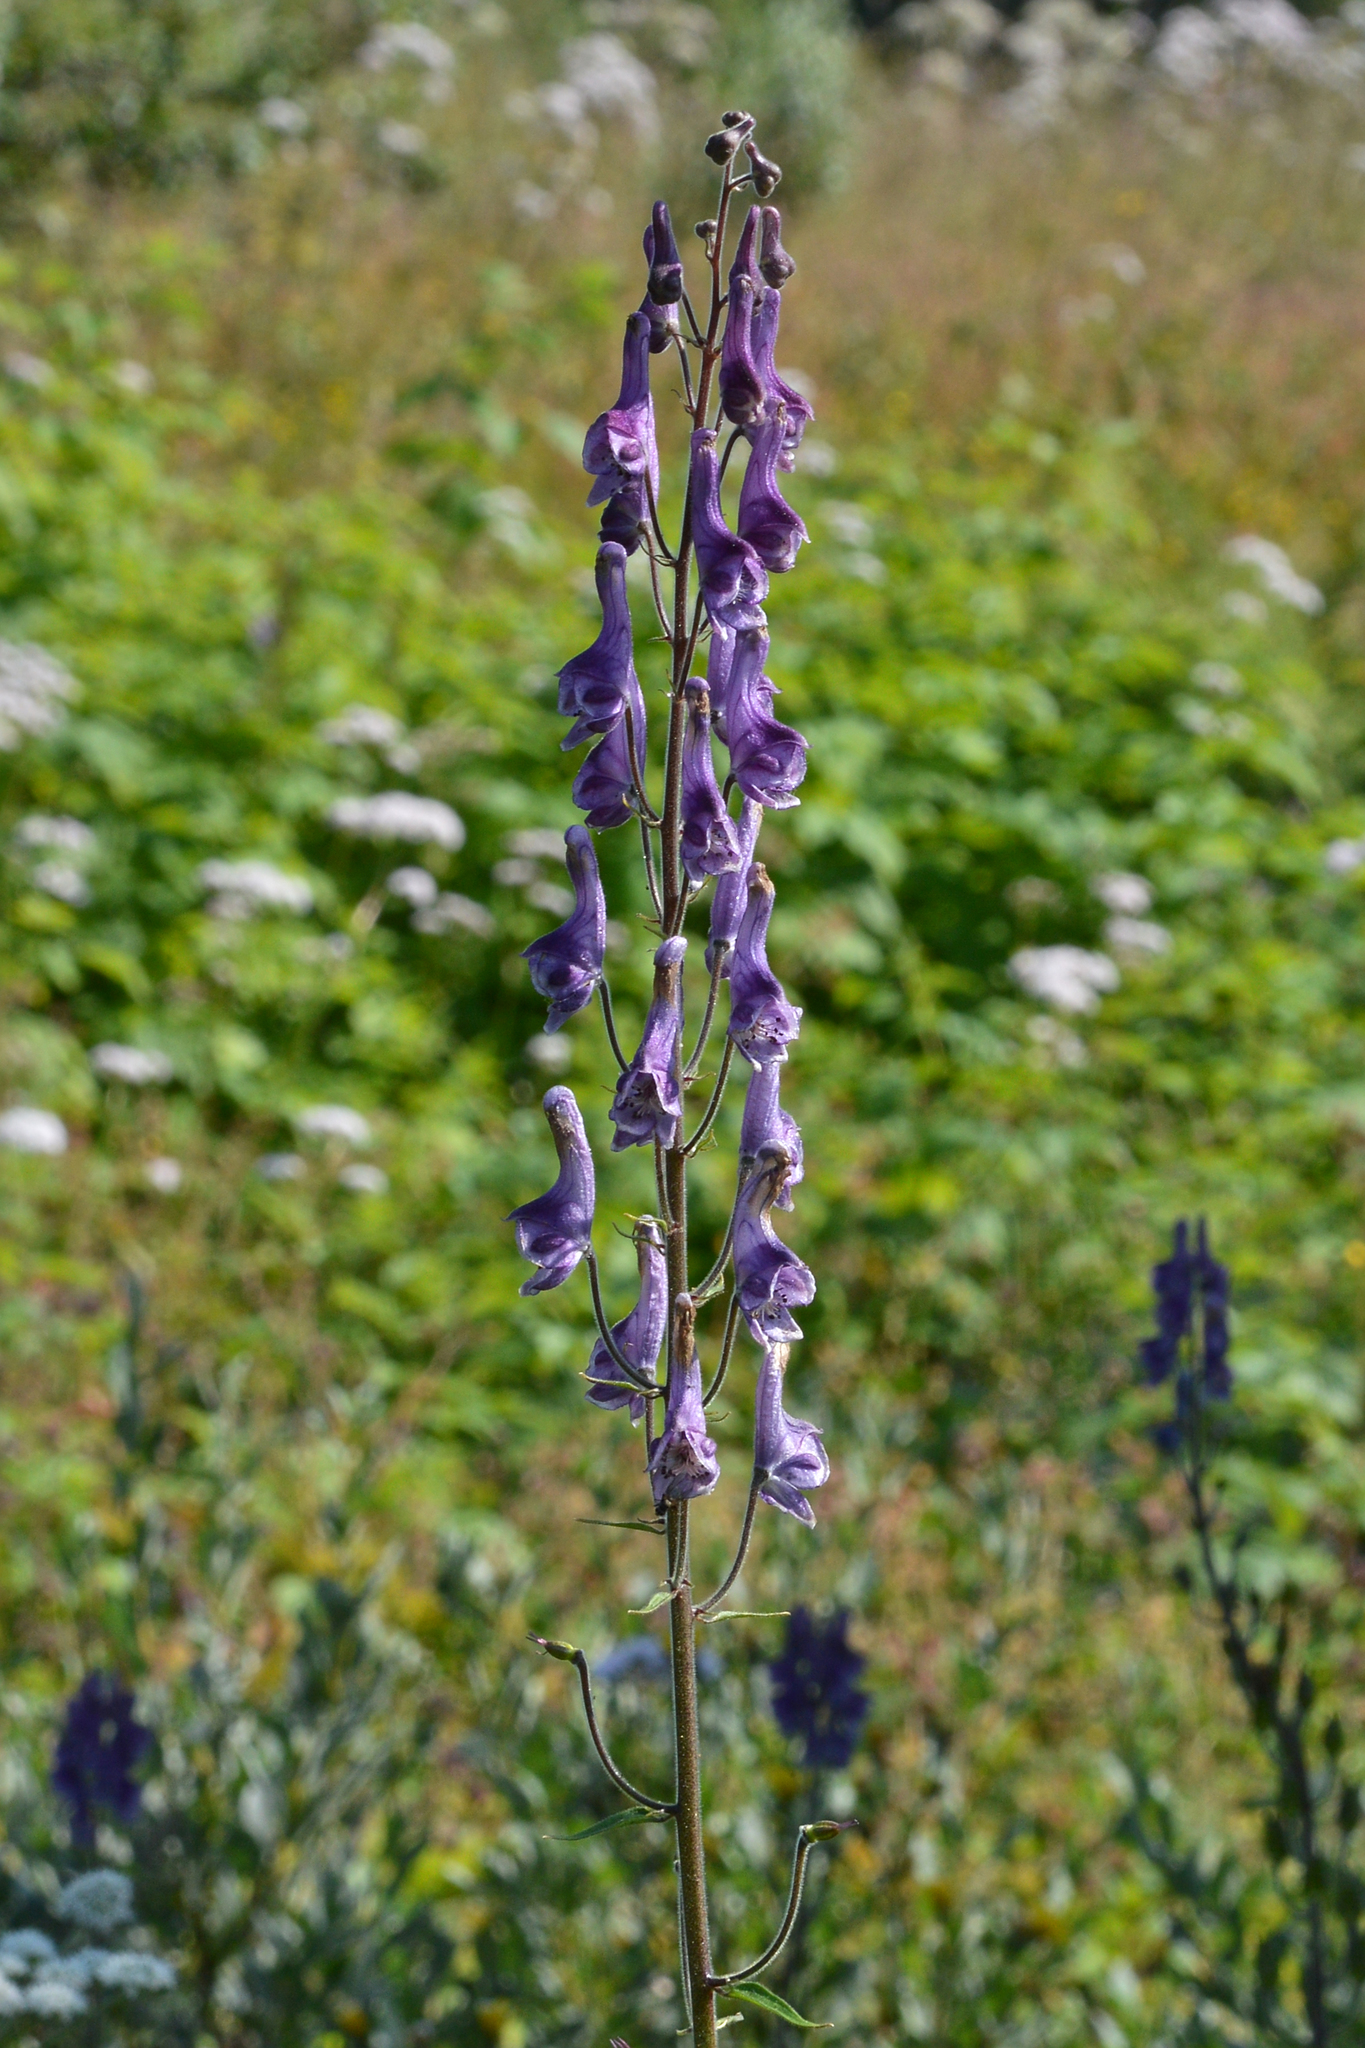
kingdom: Plantae
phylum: Tracheophyta
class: Magnoliopsida
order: Ranunculales
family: Ranunculaceae
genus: Aconitum
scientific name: Aconitum septentrionale
